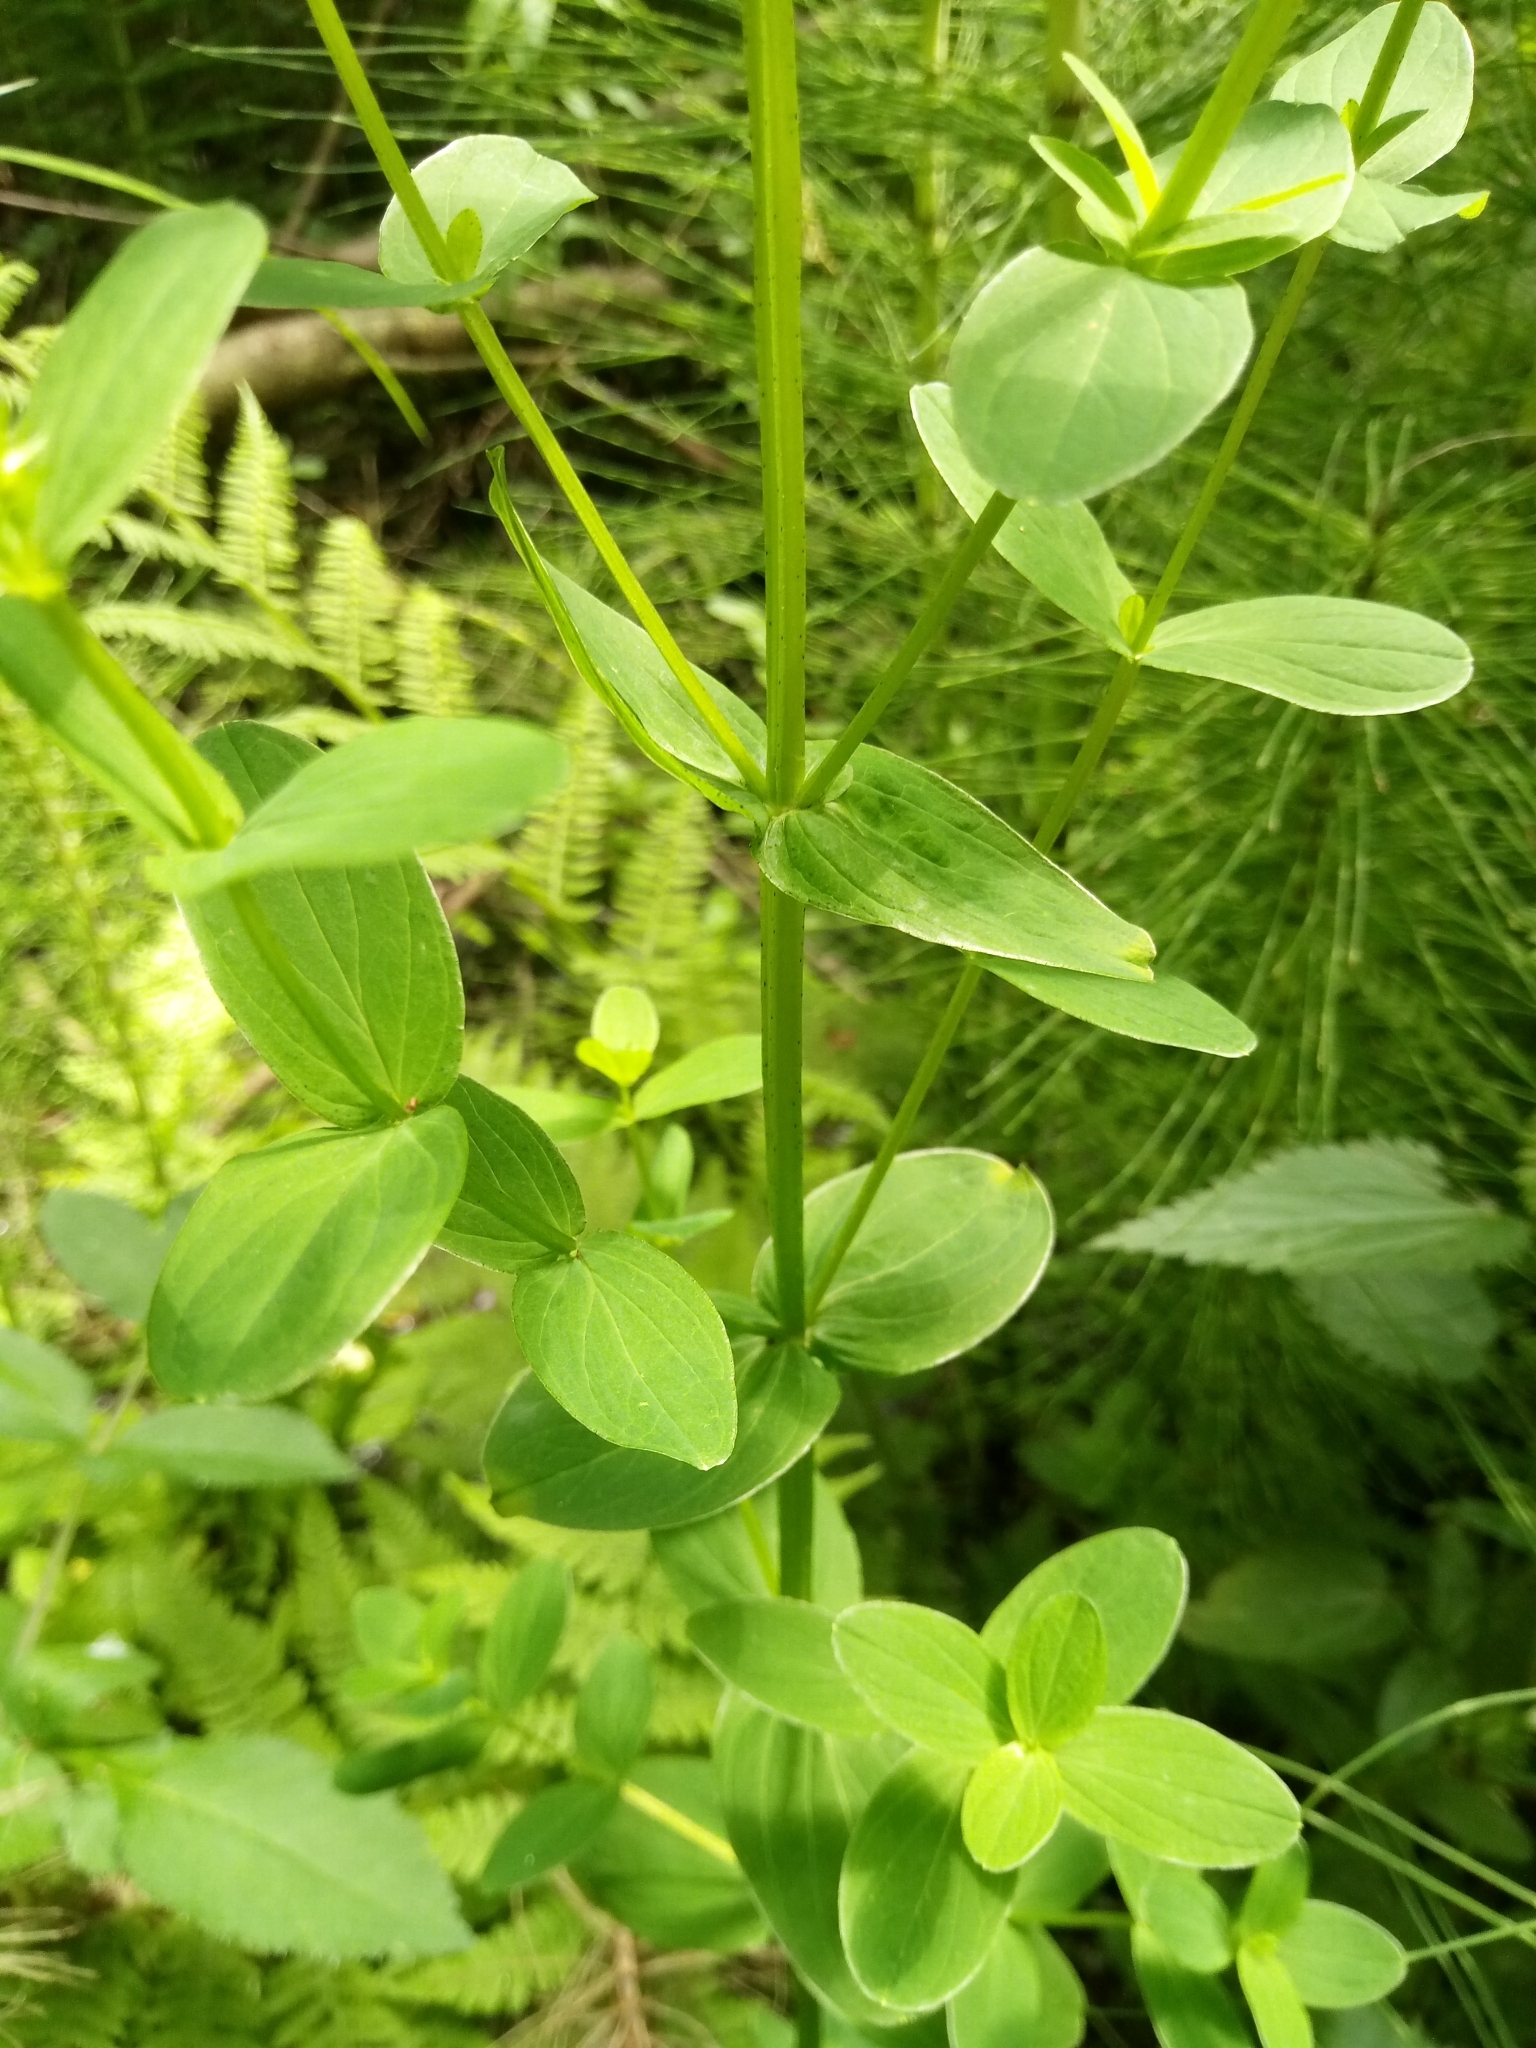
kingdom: Plantae
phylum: Tracheophyta
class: Magnoliopsida
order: Malpighiales
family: Hypericaceae
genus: Hypericum
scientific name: Hypericum tetrapterum
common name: Square-stalked st. john's-wort
